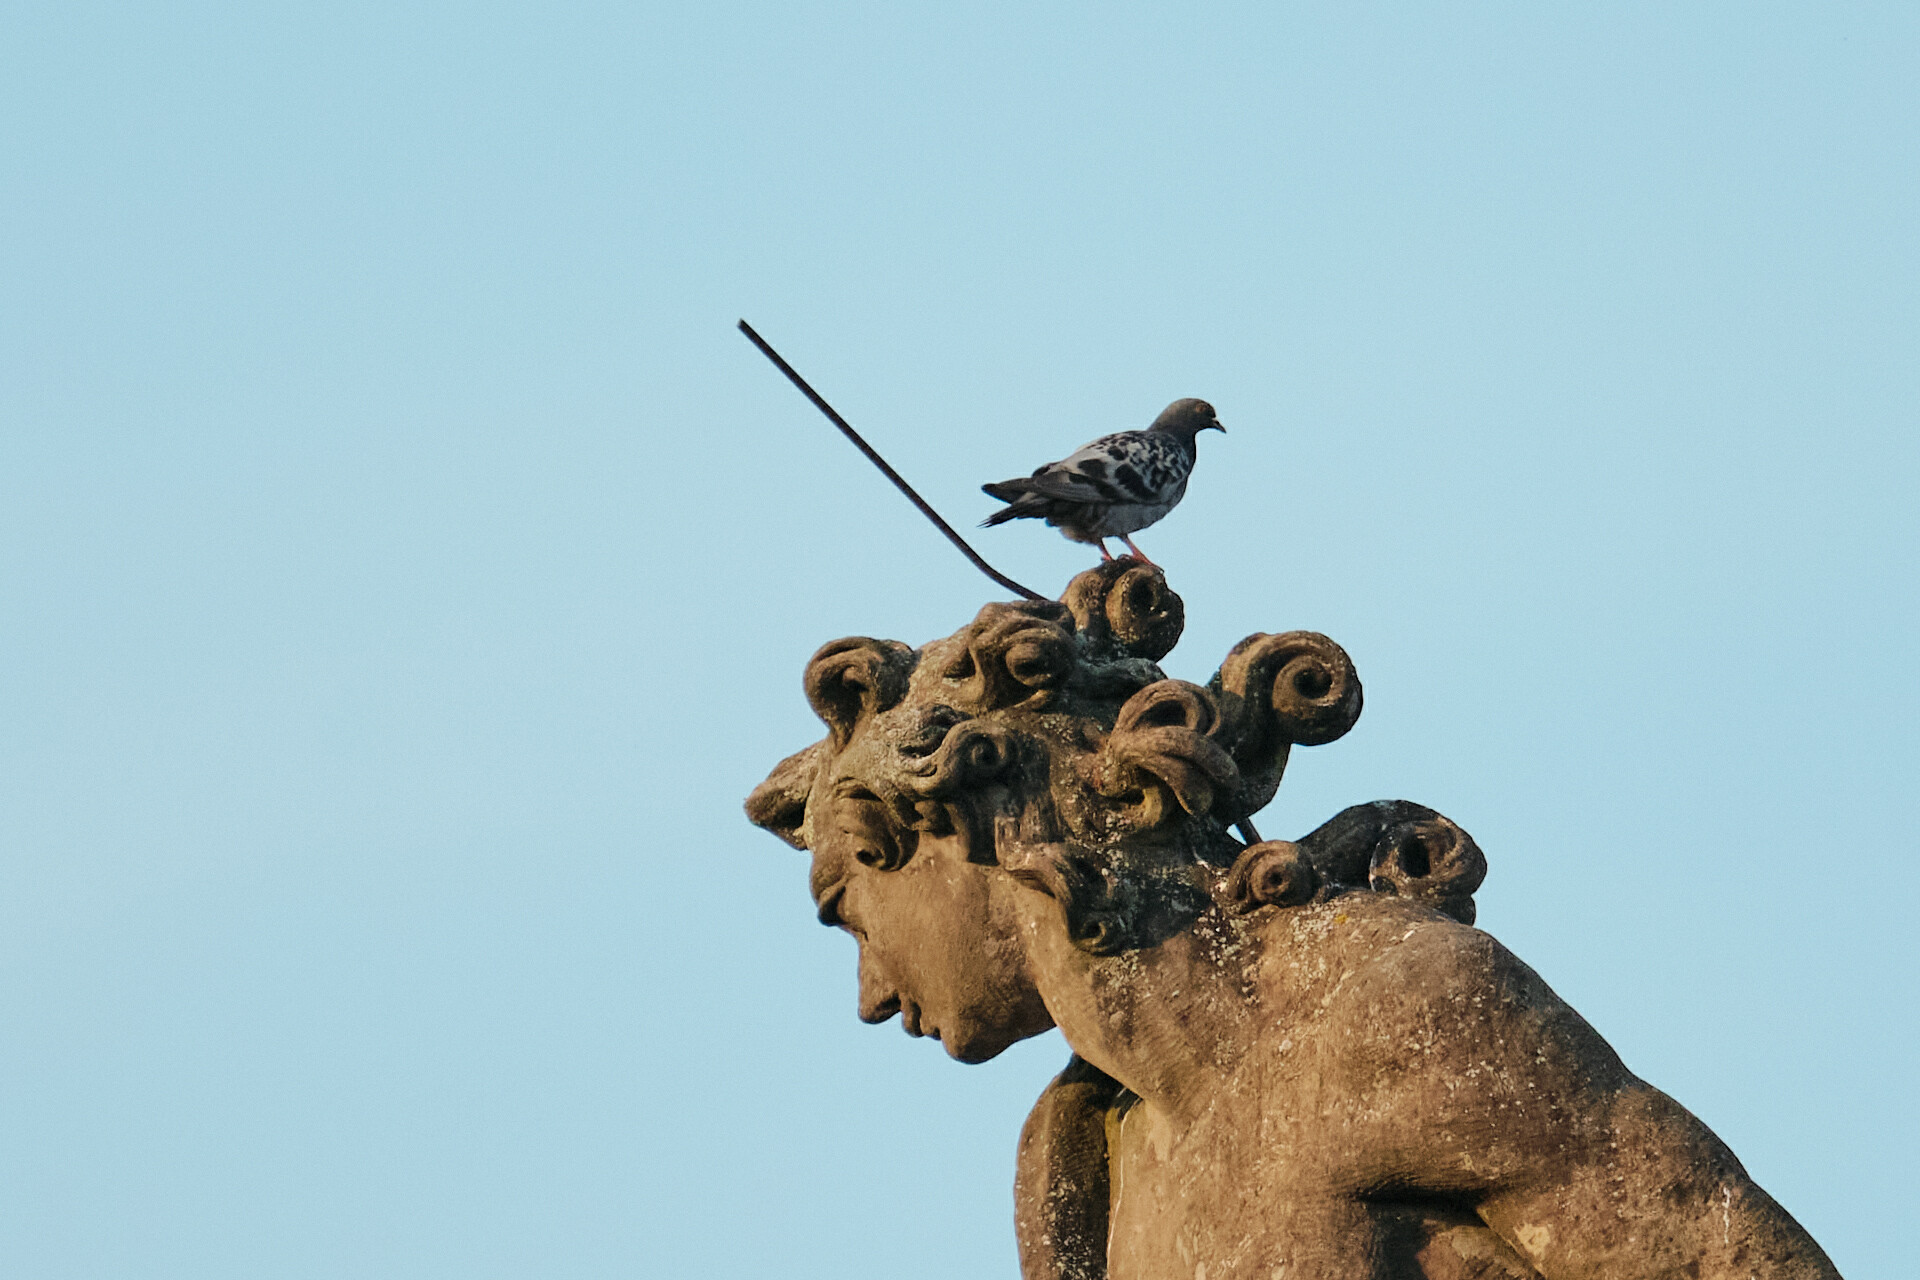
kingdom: Animalia
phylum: Chordata
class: Aves
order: Columbiformes
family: Columbidae
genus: Columba
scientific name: Columba livia
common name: Rock pigeon
